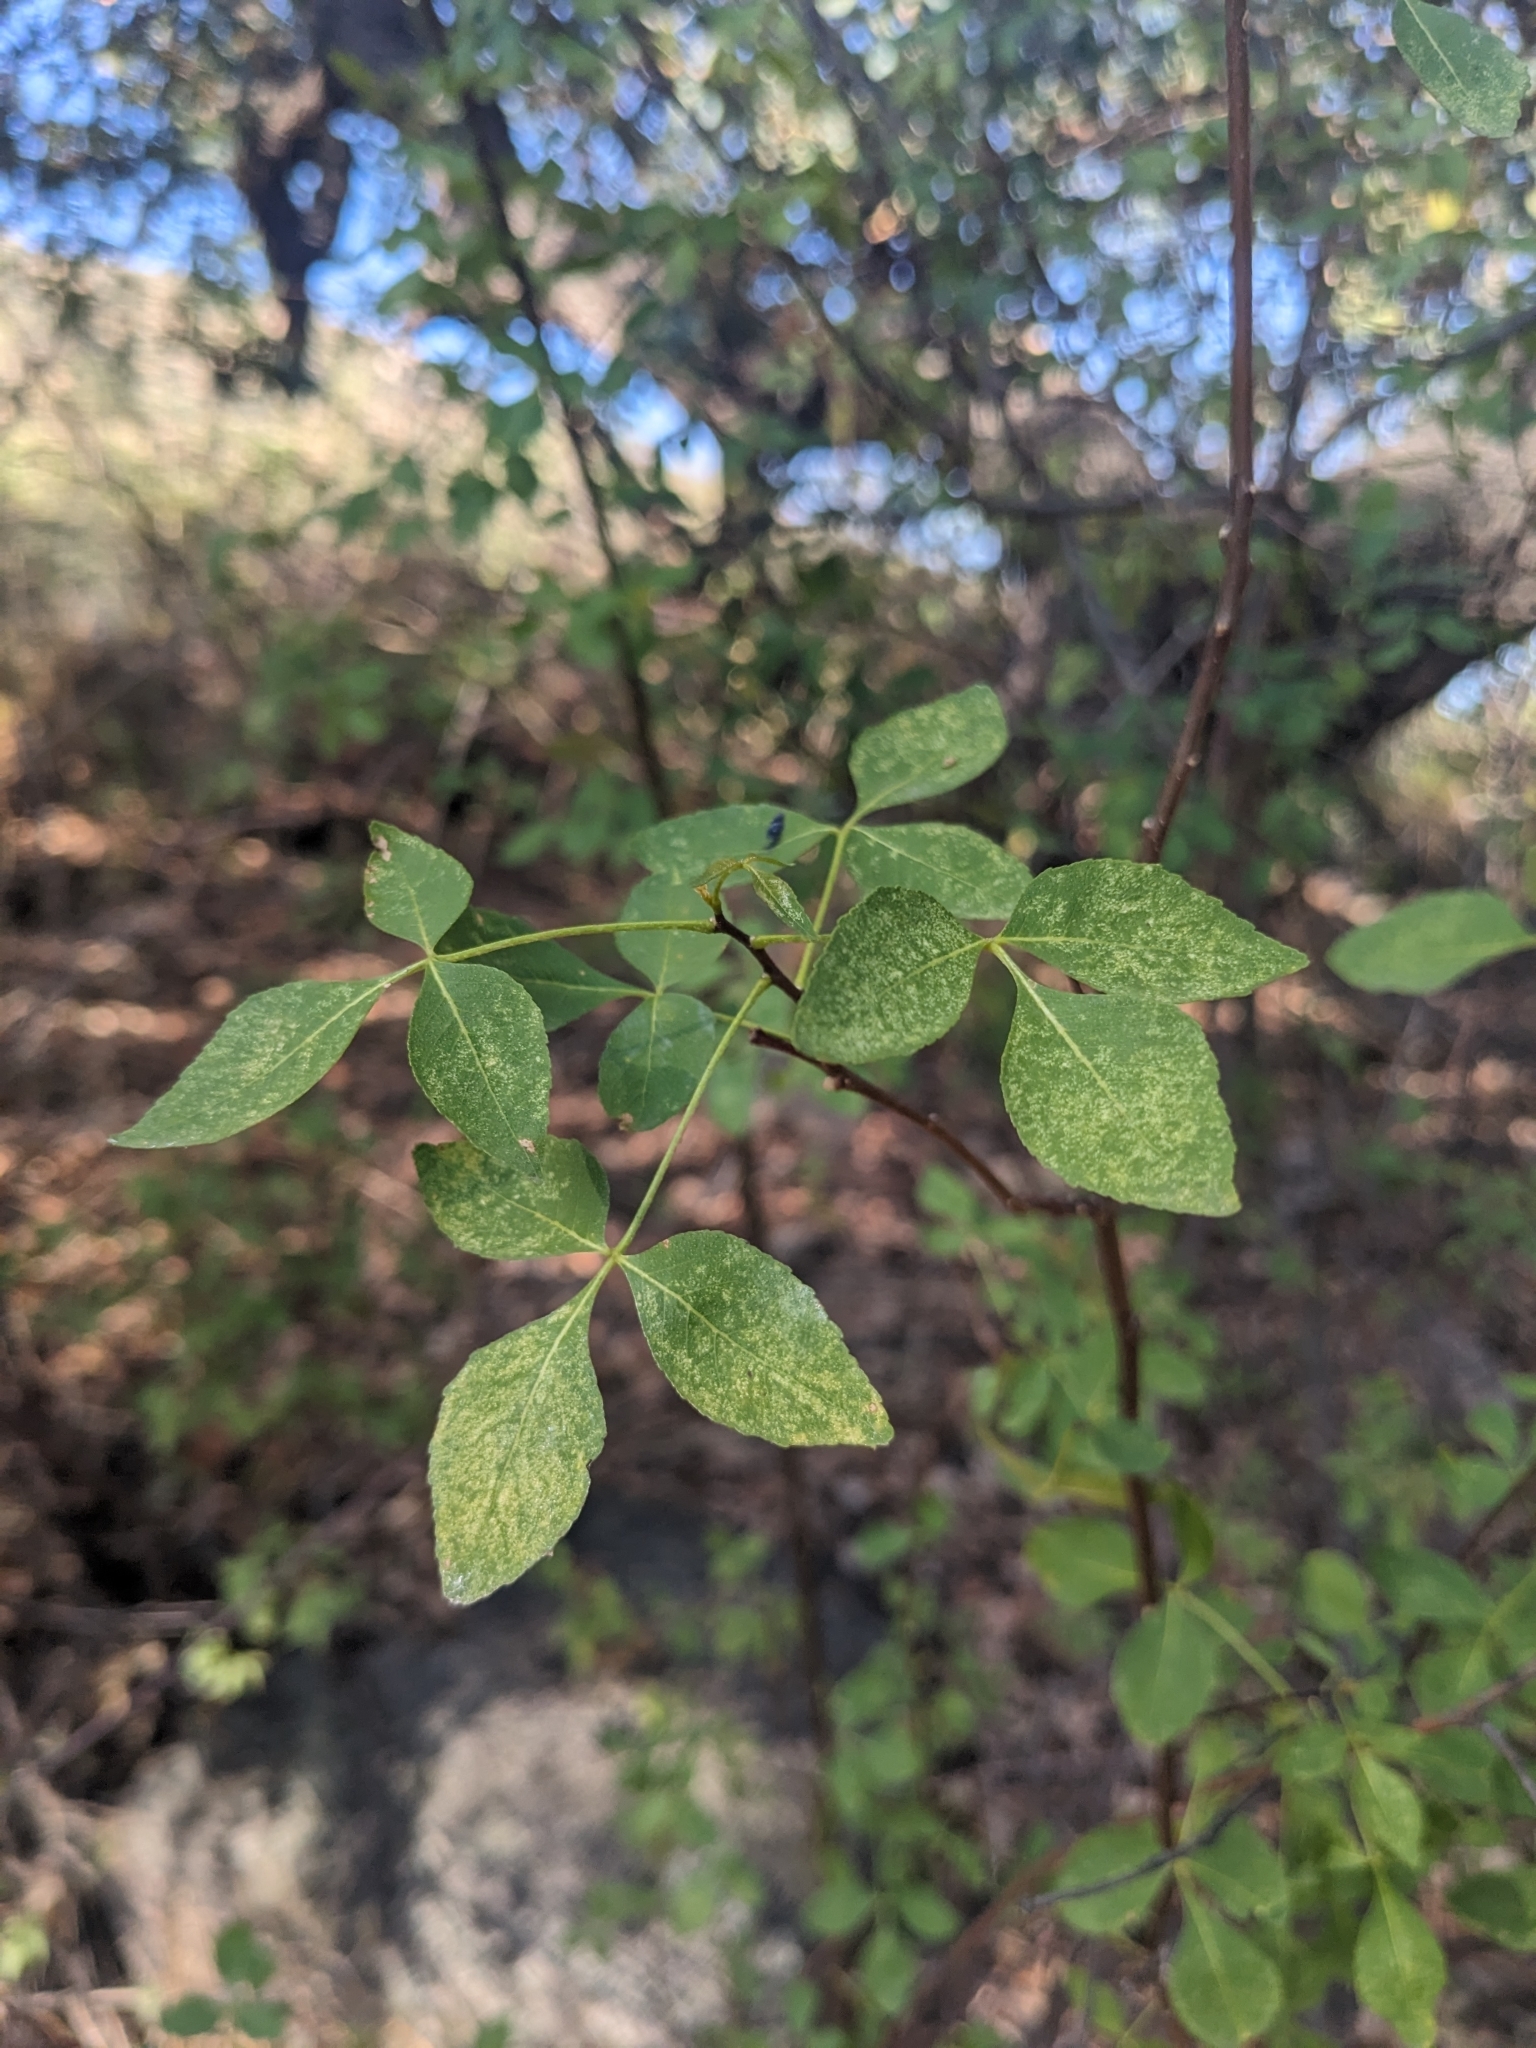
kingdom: Plantae
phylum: Tracheophyta
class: Magnoliopsida
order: Sapindales
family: Rutaceae
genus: Ptelea
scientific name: Ptelea trifoliata
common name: Common hop-tree
